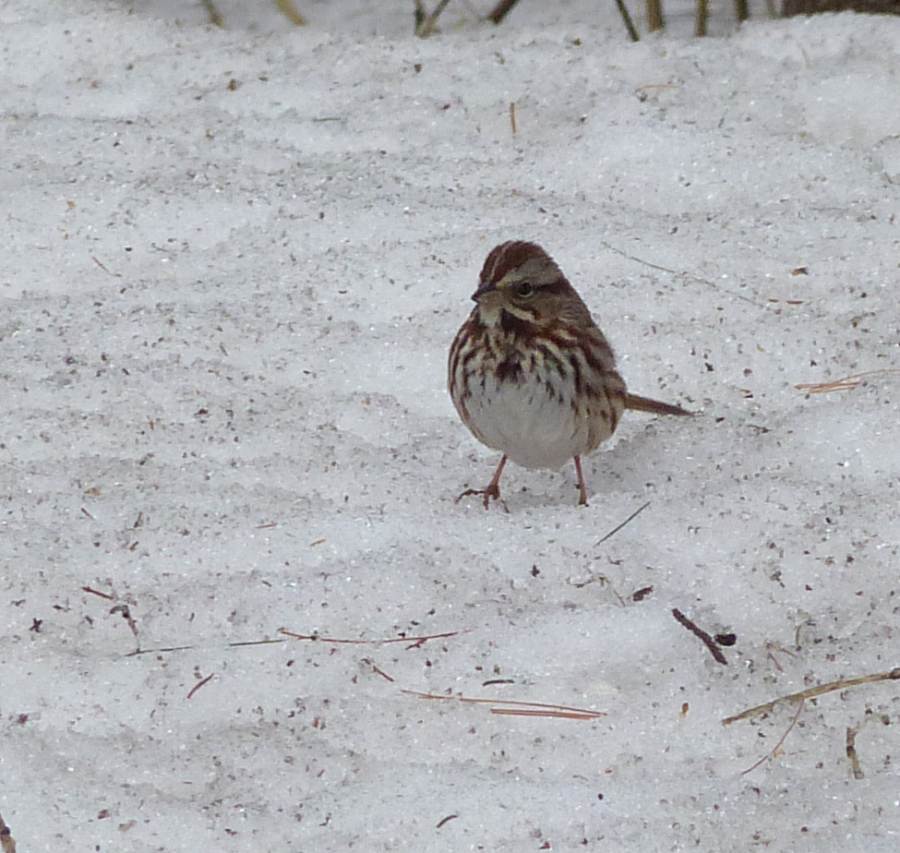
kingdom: Animalia
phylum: Chordata
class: Aves
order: Passeriformes
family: Passerellidae
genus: Melospiza
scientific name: Melospiza melodia
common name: Song sparrow
